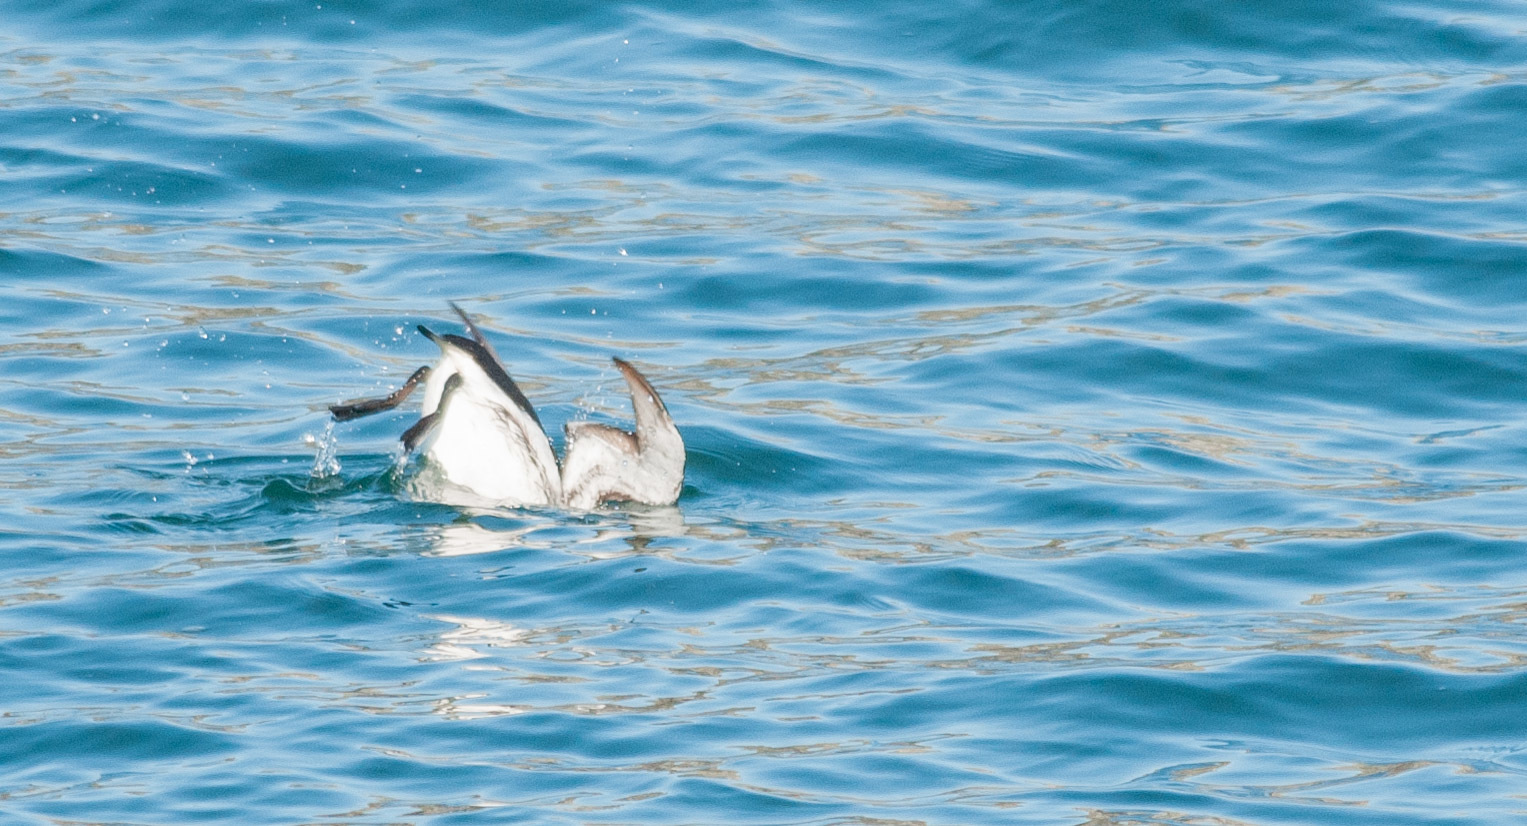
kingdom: Animalia
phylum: Chordata
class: Aves
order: Charadriiformes
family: Alcidae
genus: Uria
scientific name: Uria aalge
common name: Common murre
